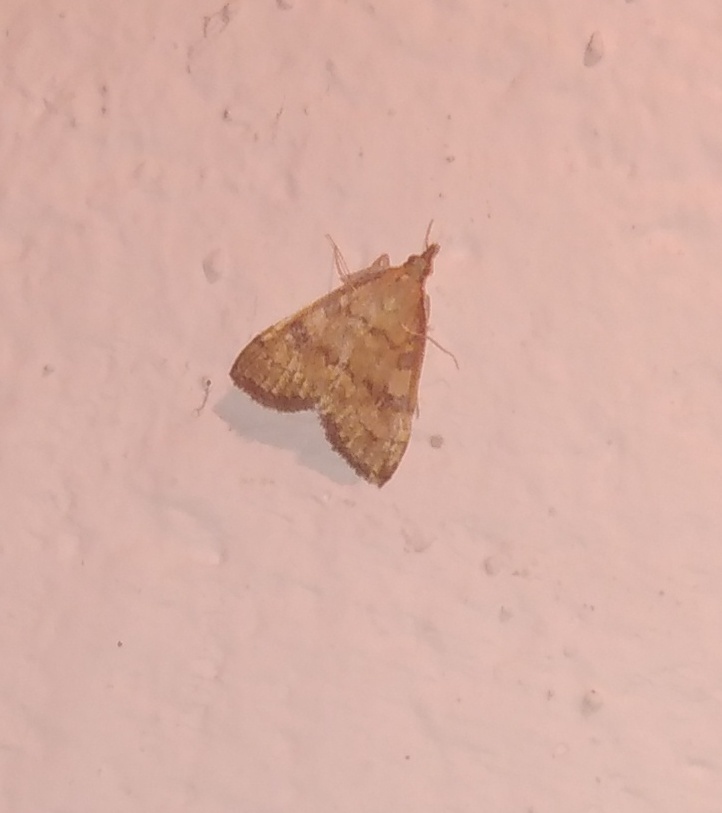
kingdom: Animalia
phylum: Arthropoda
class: Insecta
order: Lepidoptera
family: Crambidae
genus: Udea
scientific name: Udea fulvalis
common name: Fulvous pearl
